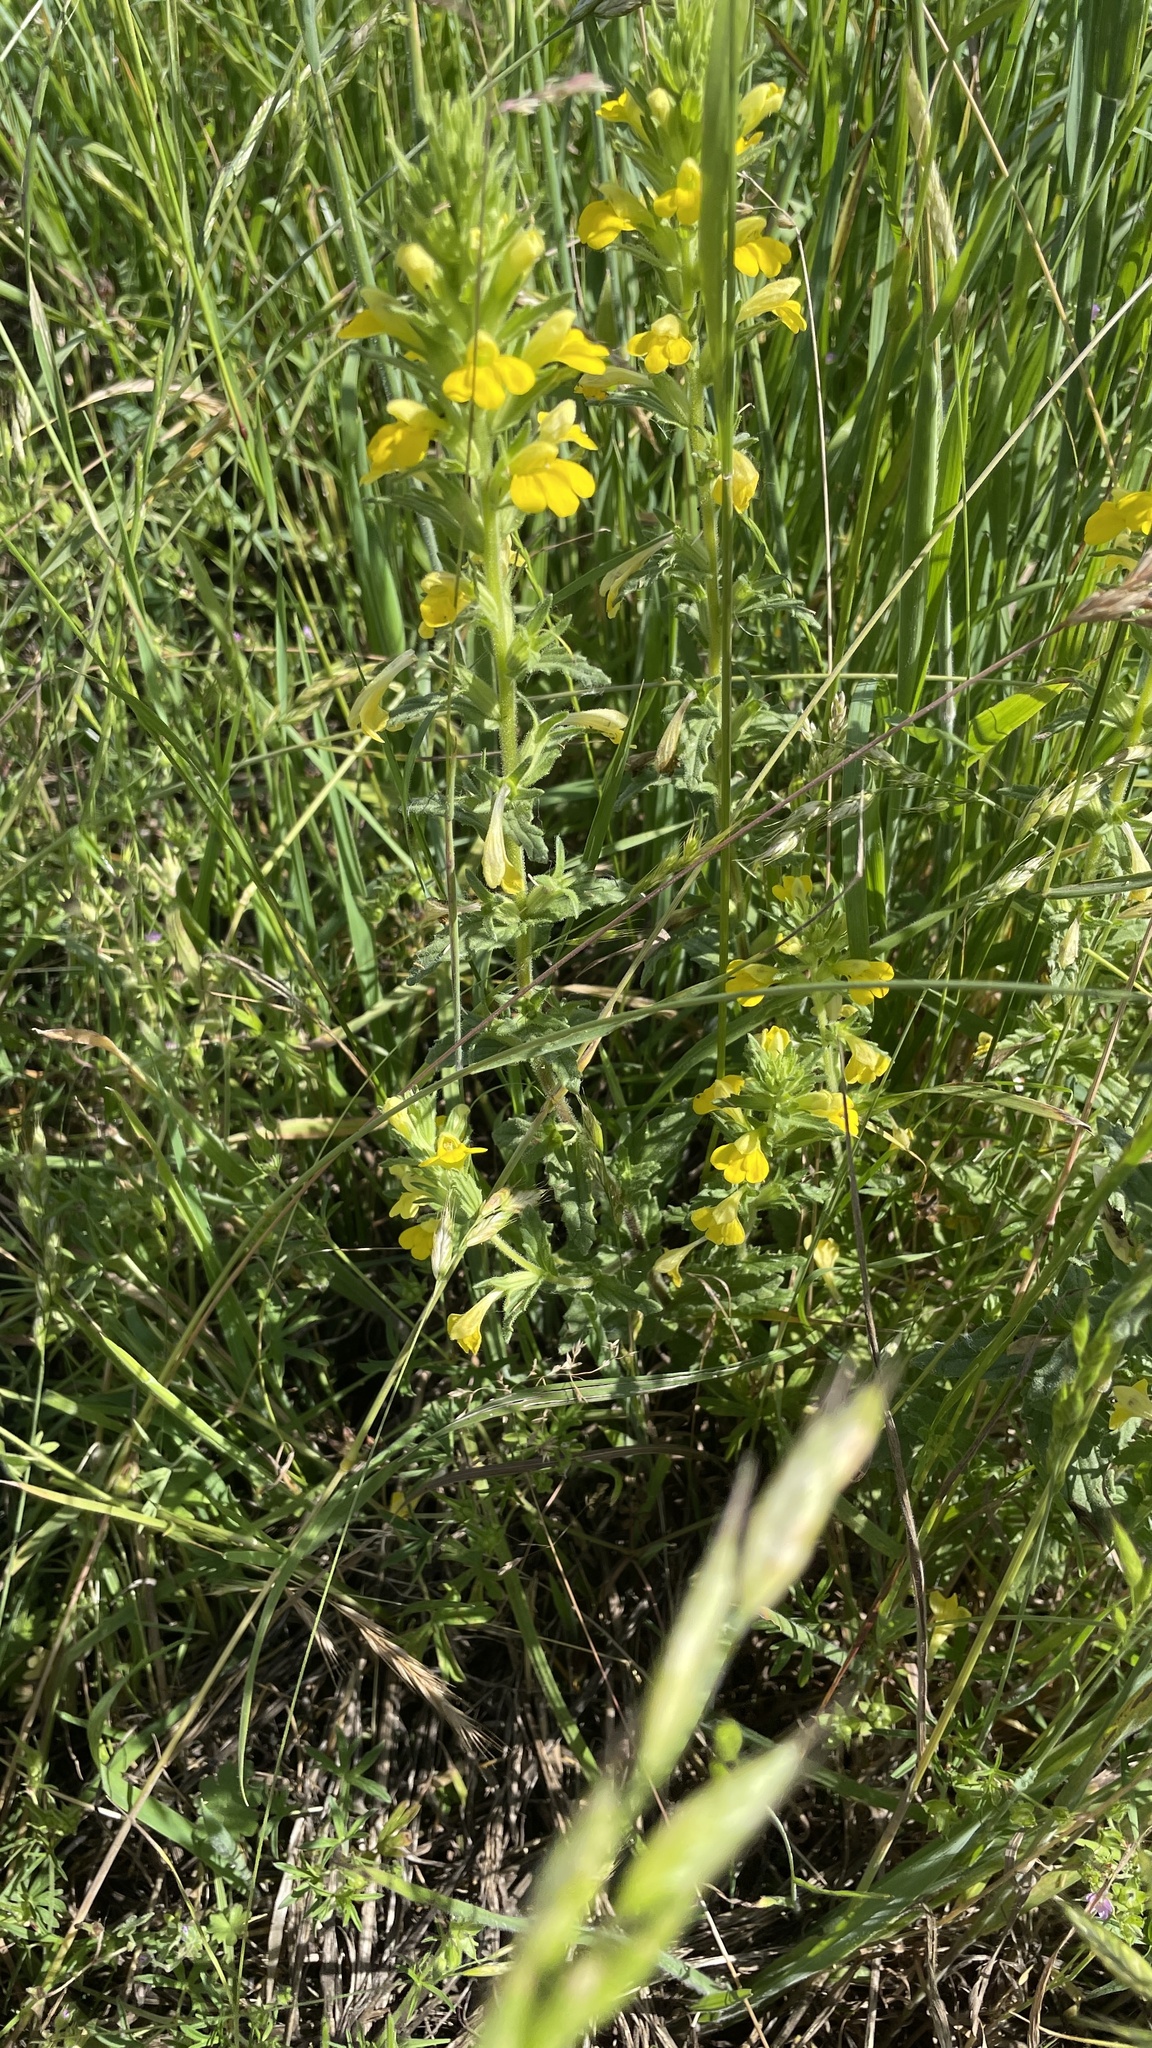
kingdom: Plantae
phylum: Tracheophyta
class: Magnoliopsida
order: Lamiales
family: Orobanchaceae
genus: Bellardia
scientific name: Bellardia viscosa
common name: Sticky parentucellia
